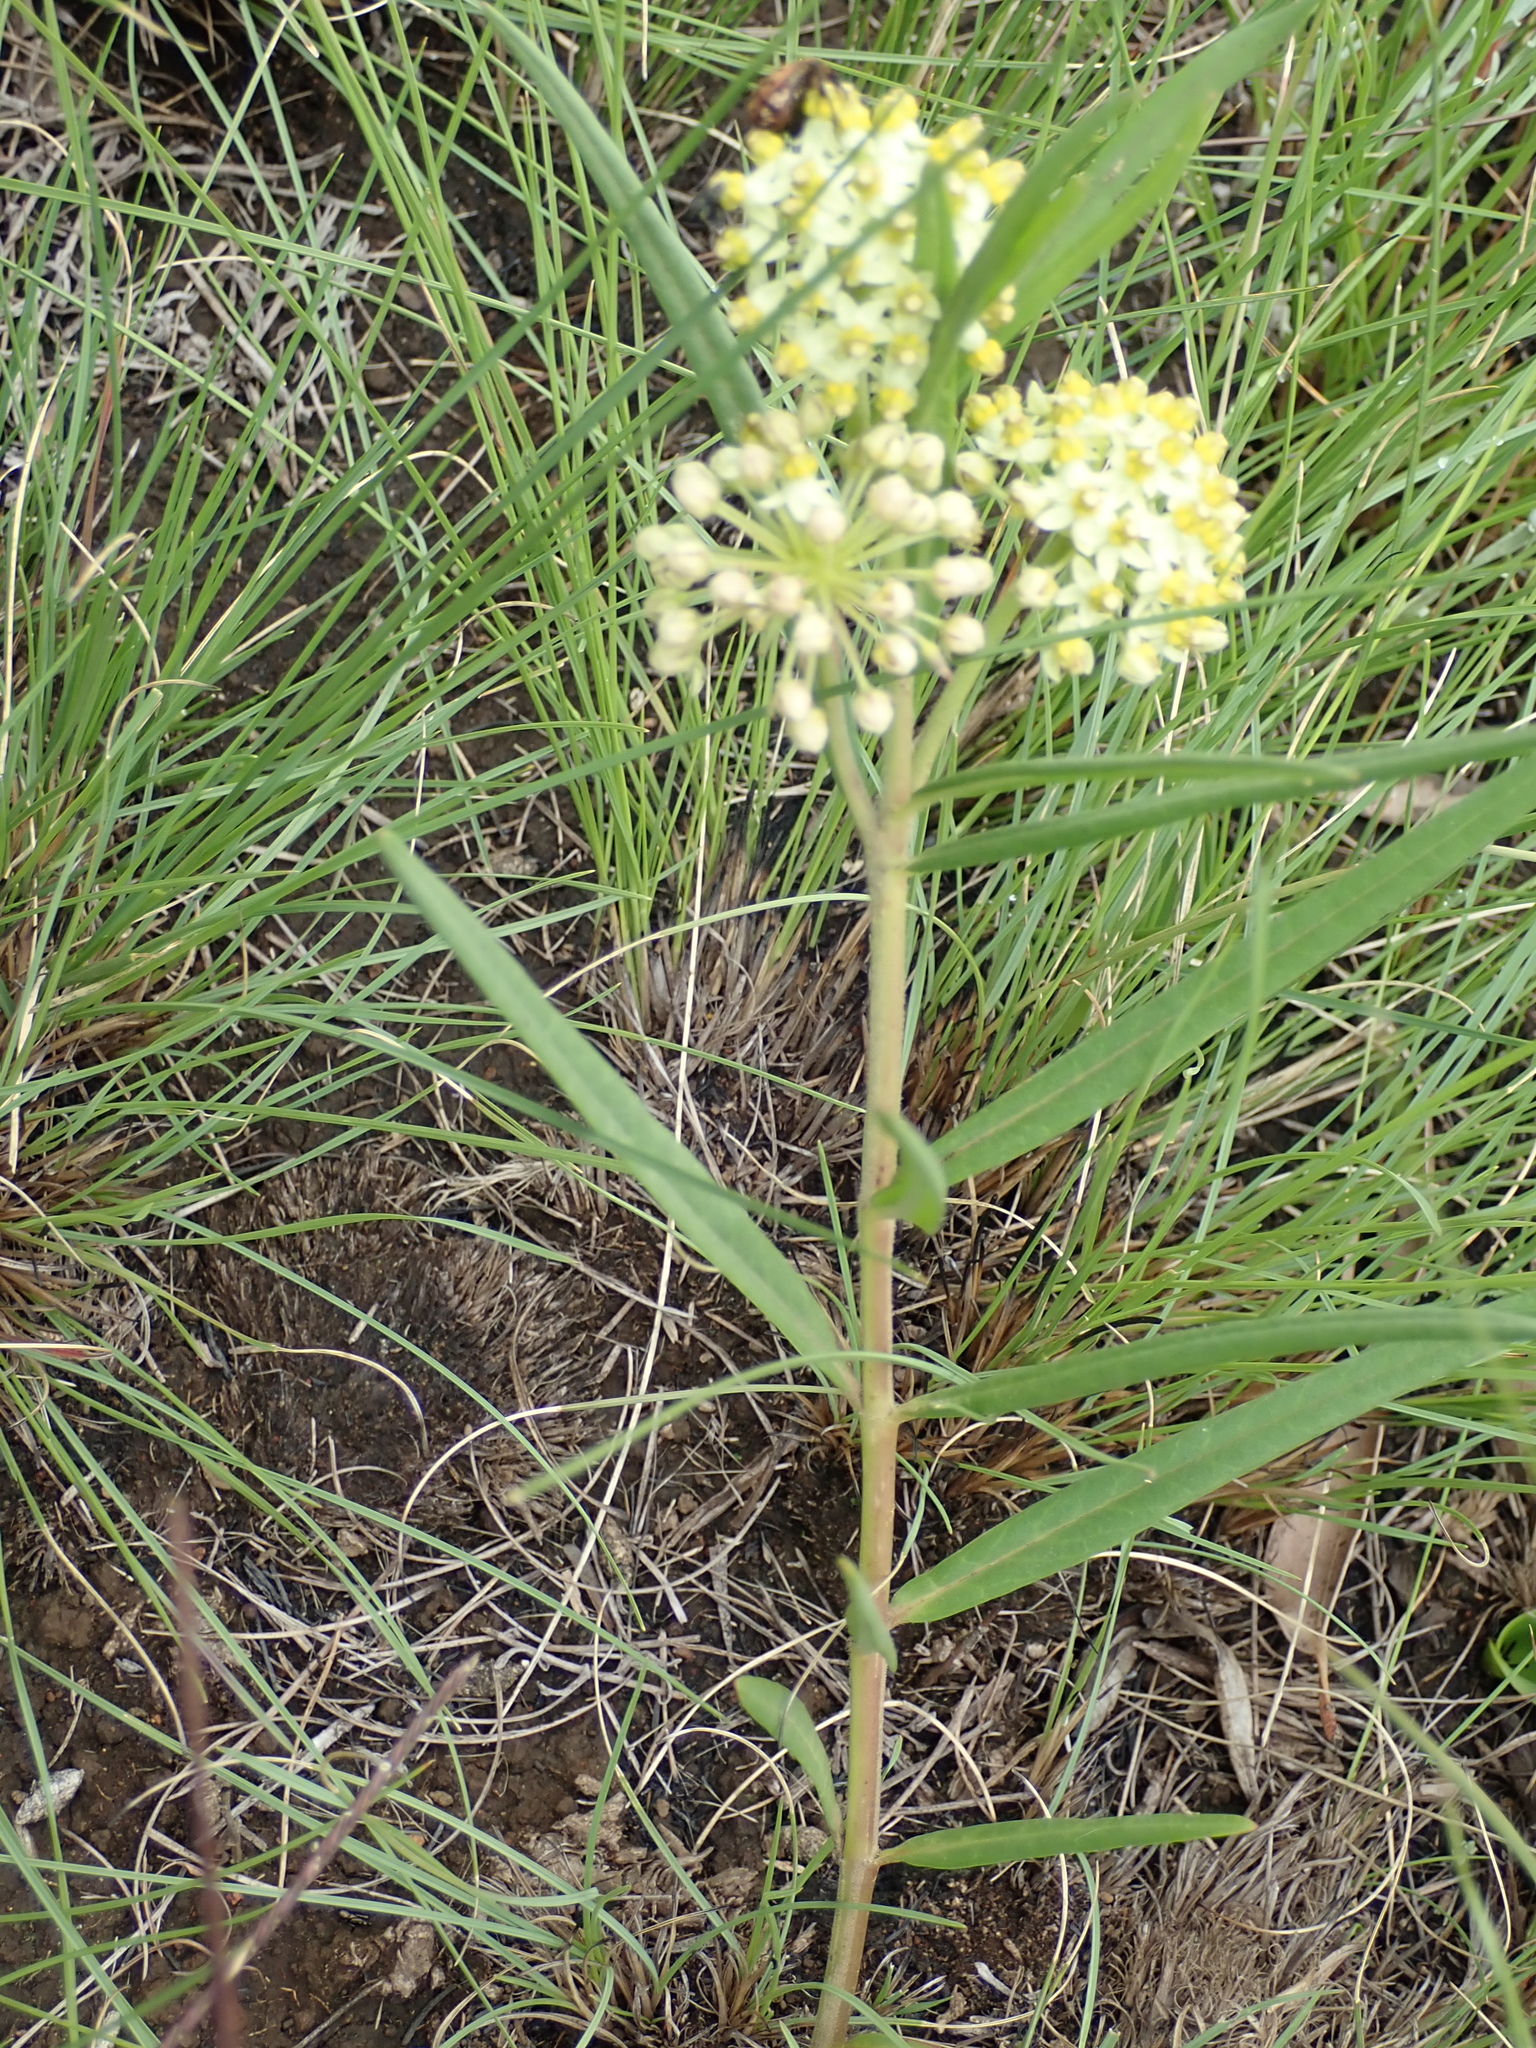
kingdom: Plantae
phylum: Tracheophyta
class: Magnoliopsida
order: Gentianales
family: Apocynaceae
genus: Xysmalobium
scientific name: Xysmalobium involucratum
